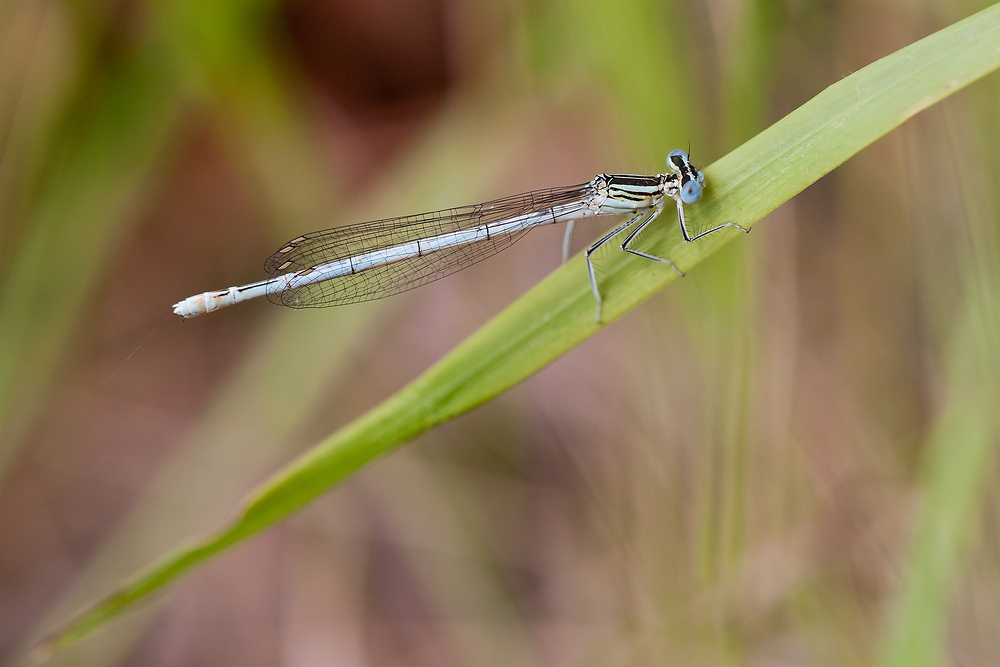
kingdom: Animalia
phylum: Arthropoda
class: Insecta
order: Odonata
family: Platycnemididae
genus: Platycnemis
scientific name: Platycnemis pennipes
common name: White-legged damselfly
